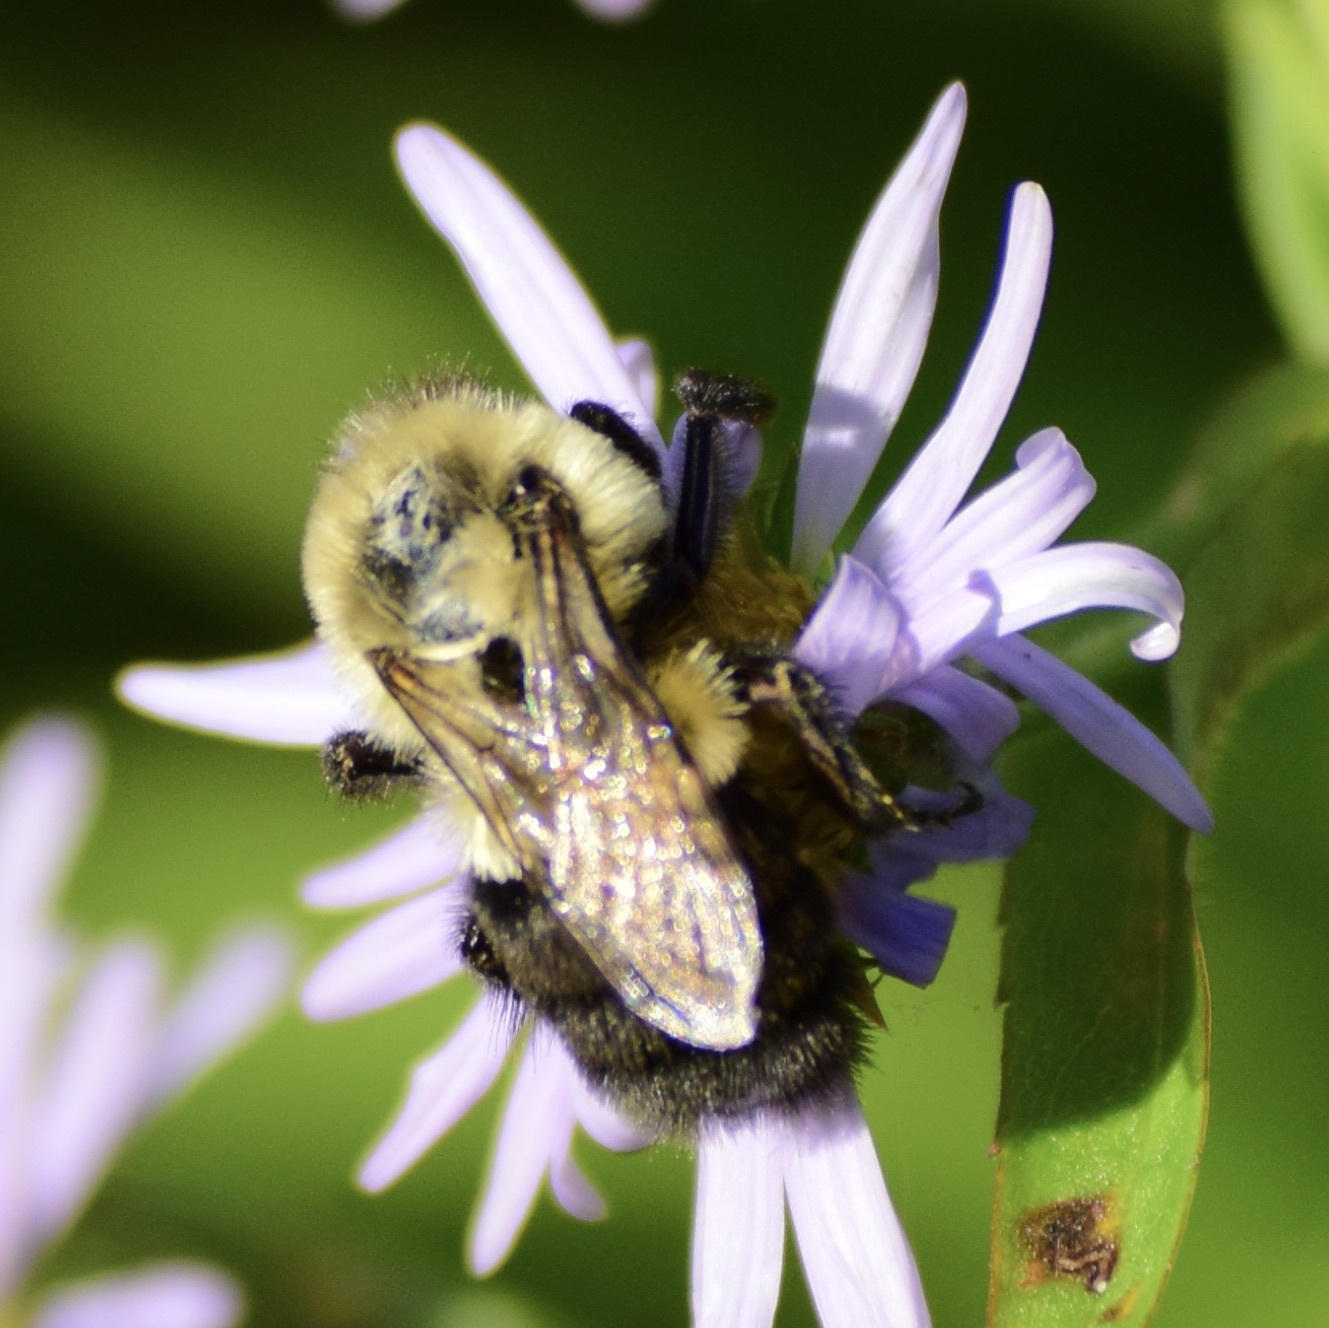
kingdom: Animalia
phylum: Arthropoda
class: Insecta
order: Hymenoptera
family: Apidae
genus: Bombus
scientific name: Bombus impatiens
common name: Common eastern bumble bee
